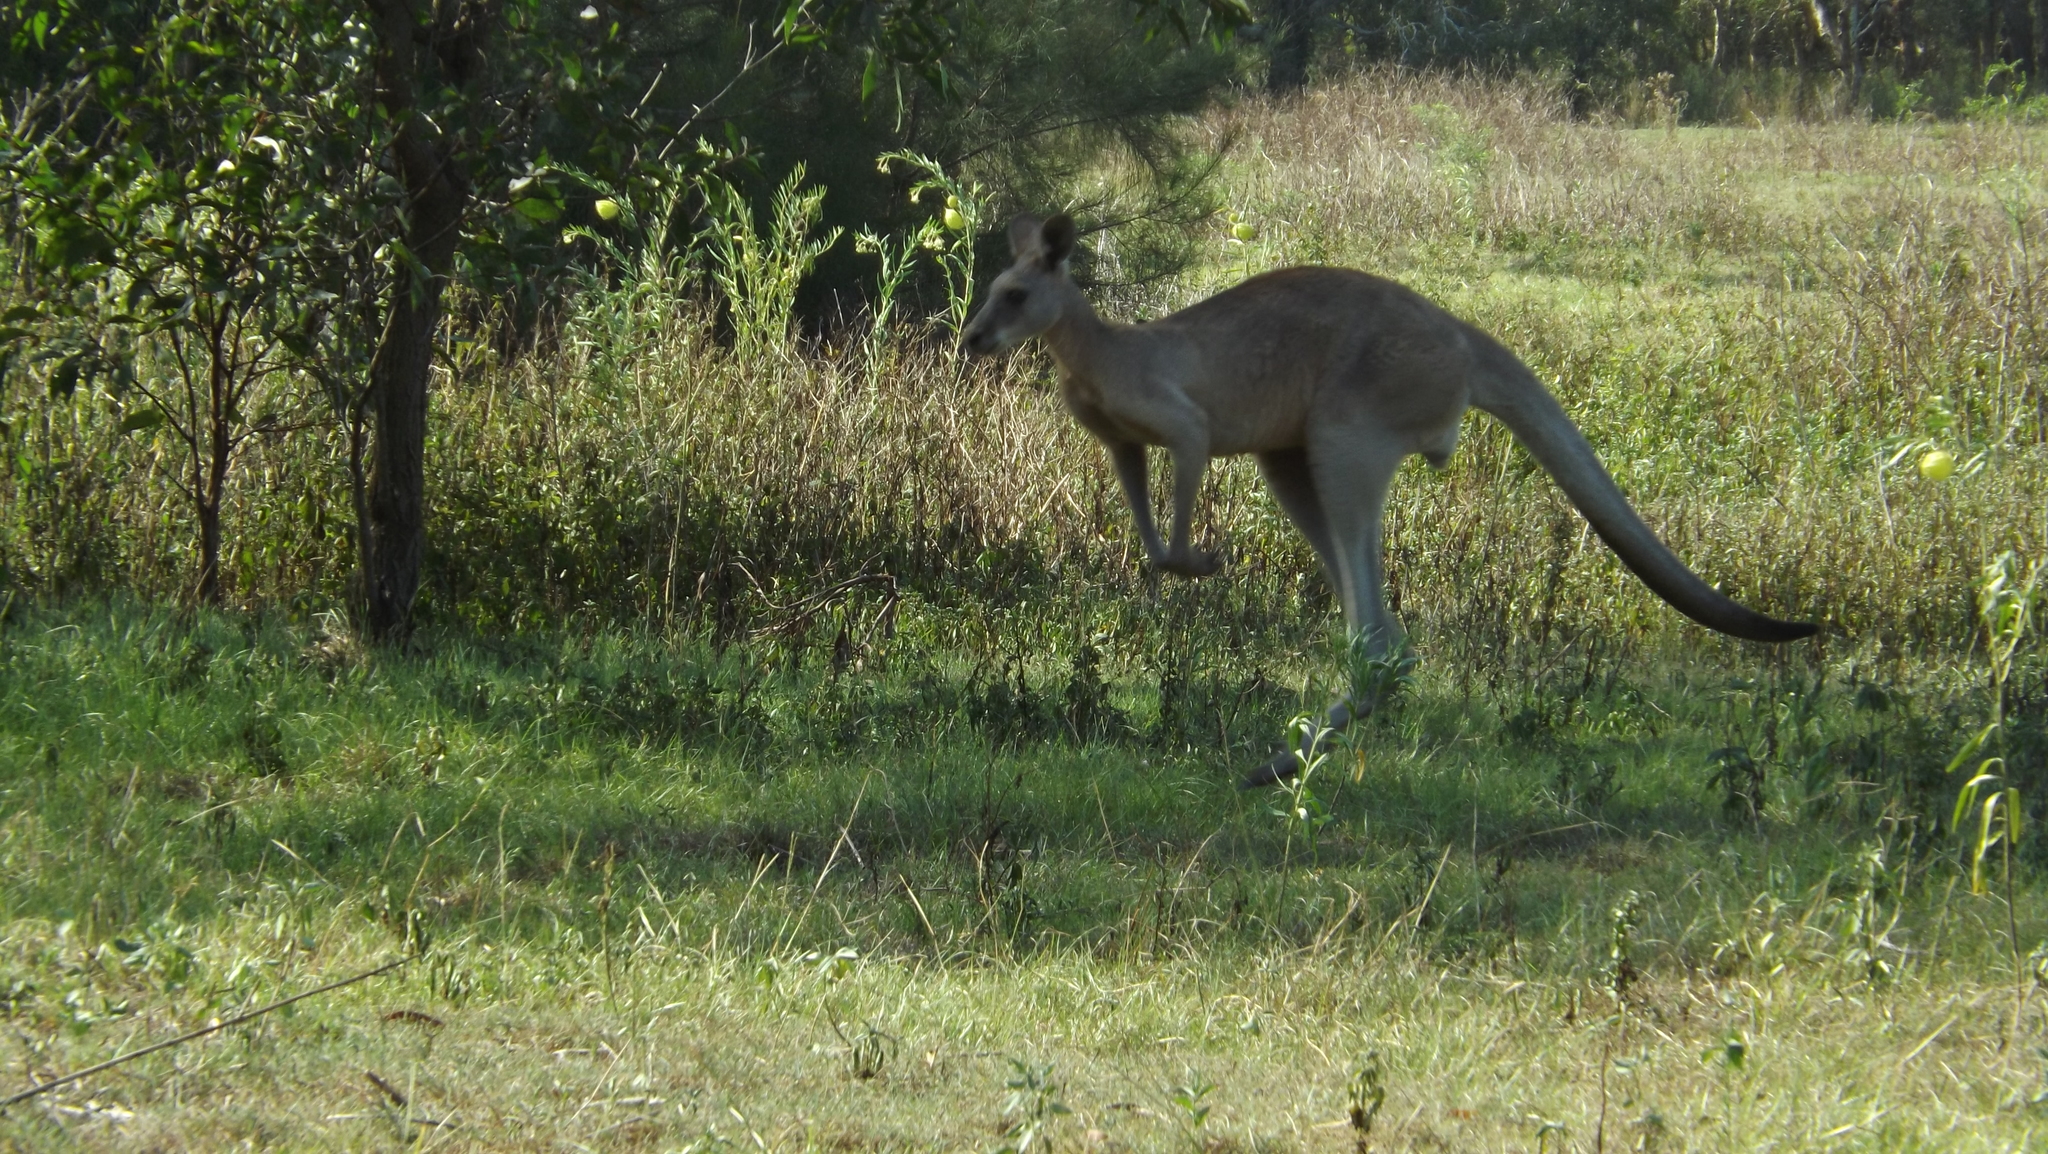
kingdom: Animalia
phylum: Chordata
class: Mammalia
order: Diprotodontia
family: Macropodidae
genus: Macropus
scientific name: Macropus giganteus
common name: Eastern grey kangaroo
